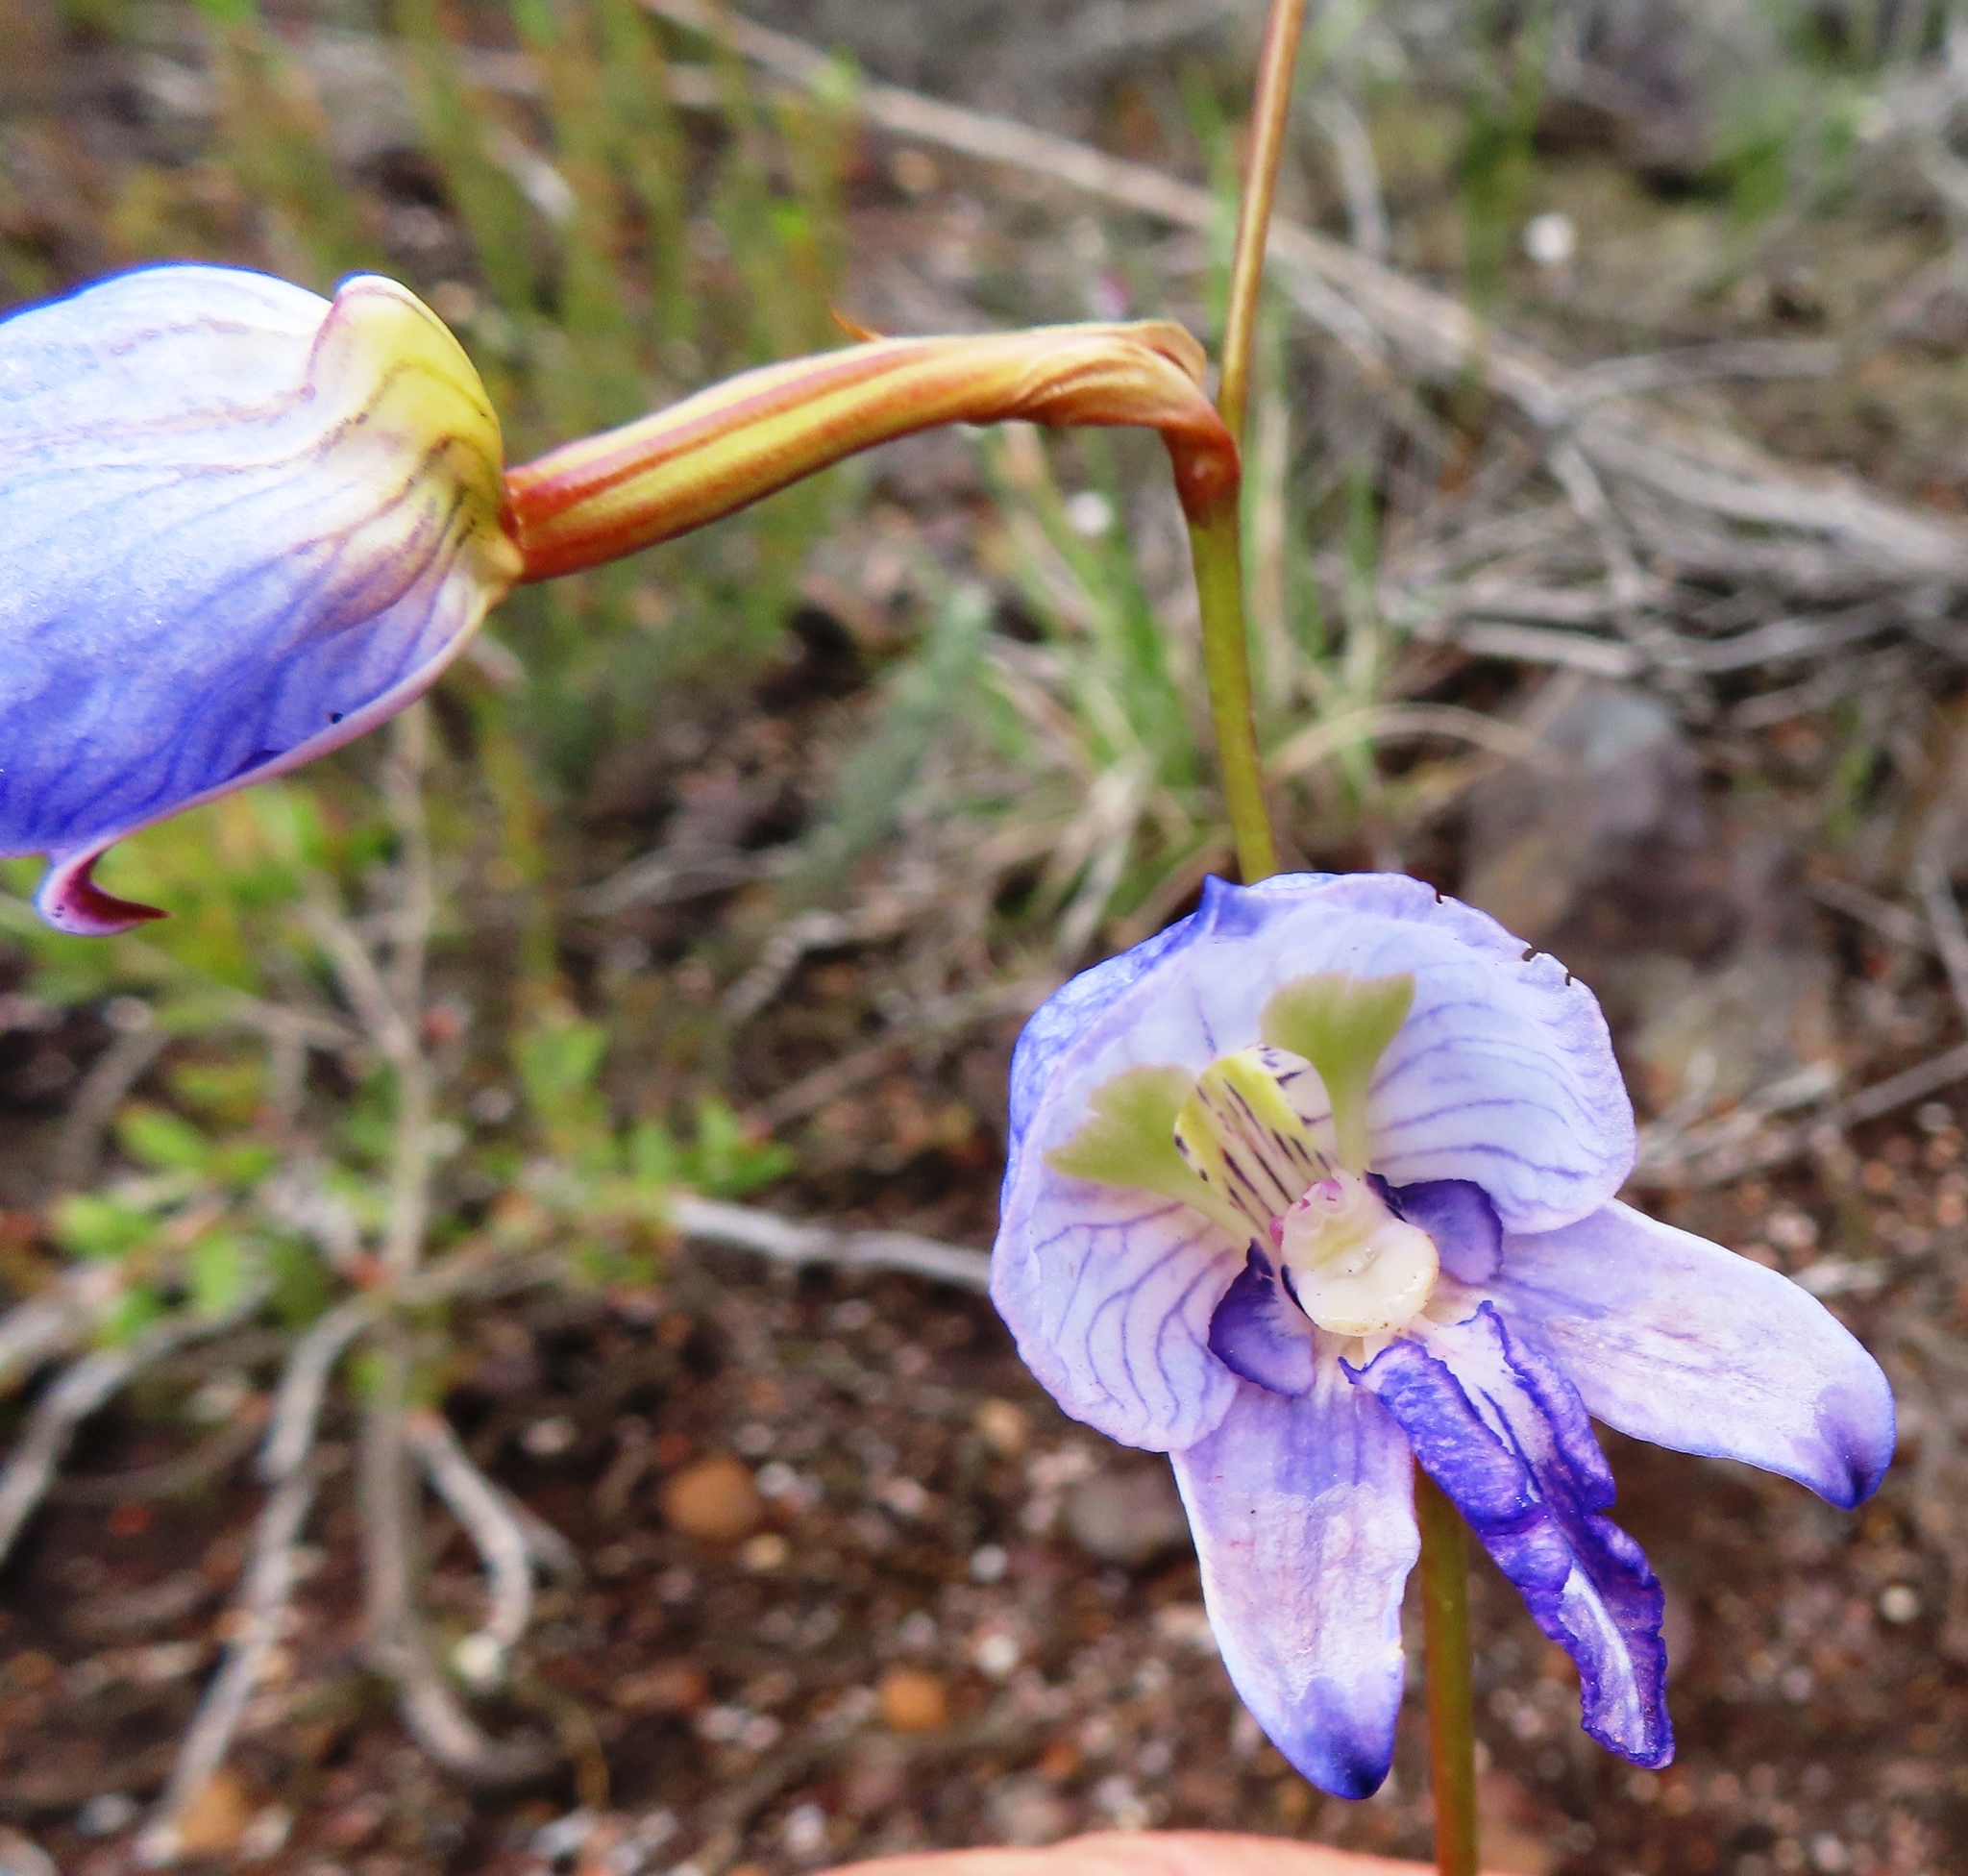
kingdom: Plantae
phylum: Tracheophyta
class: Liliopsida
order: Asparagales
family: Orchidaceae
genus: Disa
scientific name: Disa purpurascens
